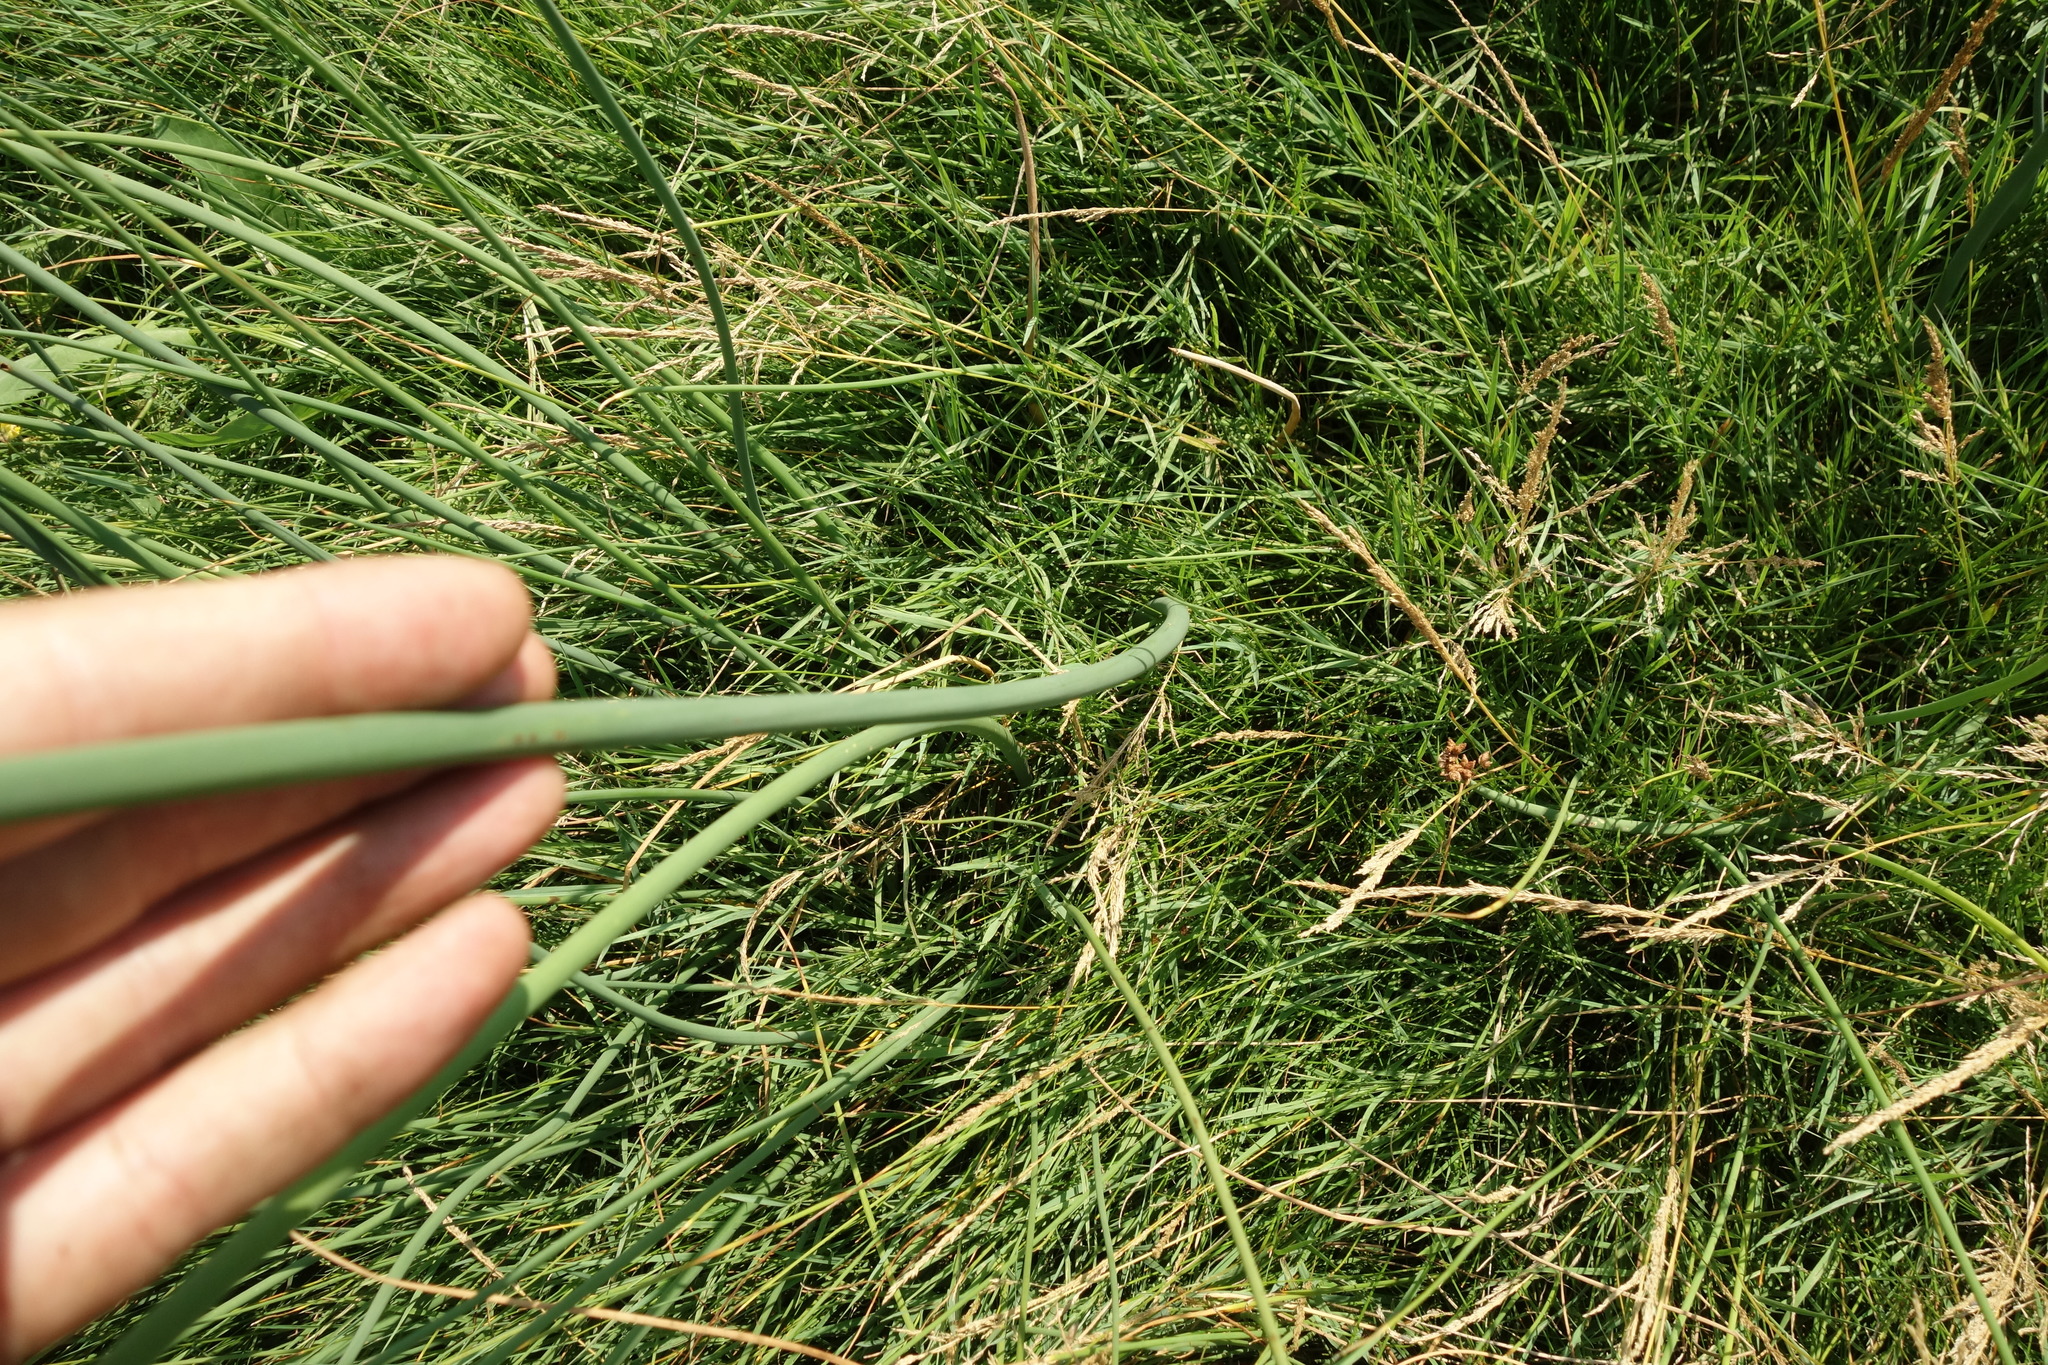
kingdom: Plantae
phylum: Tracheophyta
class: Liliopsida
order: Poales
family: Cyperaceae
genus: Schoenoplectus
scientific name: Schoenoplectus lacustris
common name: Common club-rush
